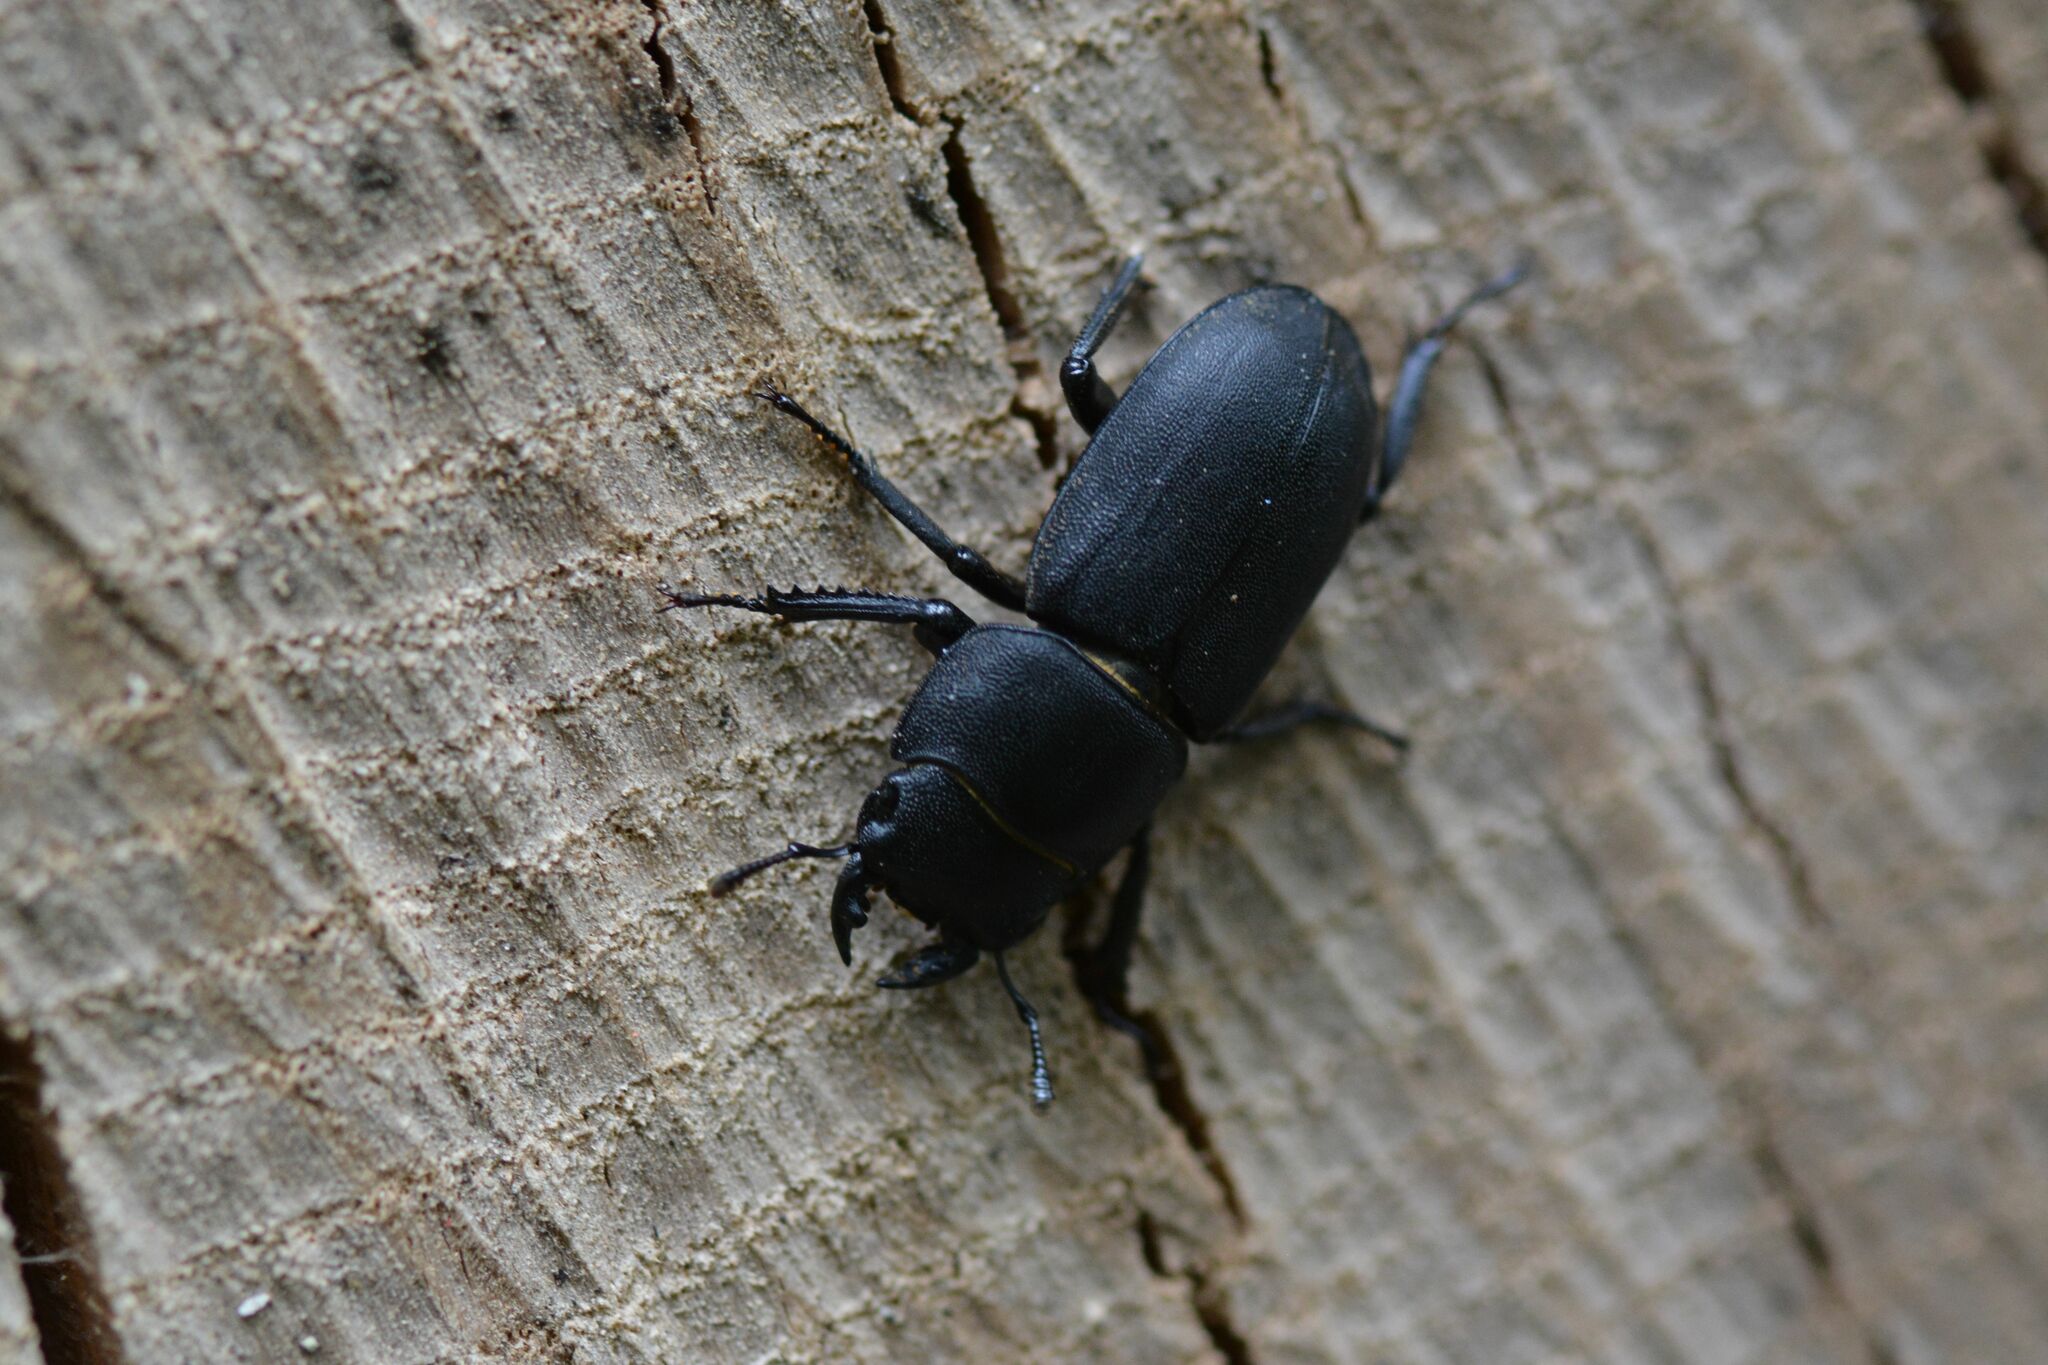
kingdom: Animalia
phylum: Arthropoda
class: Insecta
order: Coleoptera
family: Lucanidae
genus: Dorcus
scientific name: Dorcus parallelipipedus
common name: Lesser stag beetle
